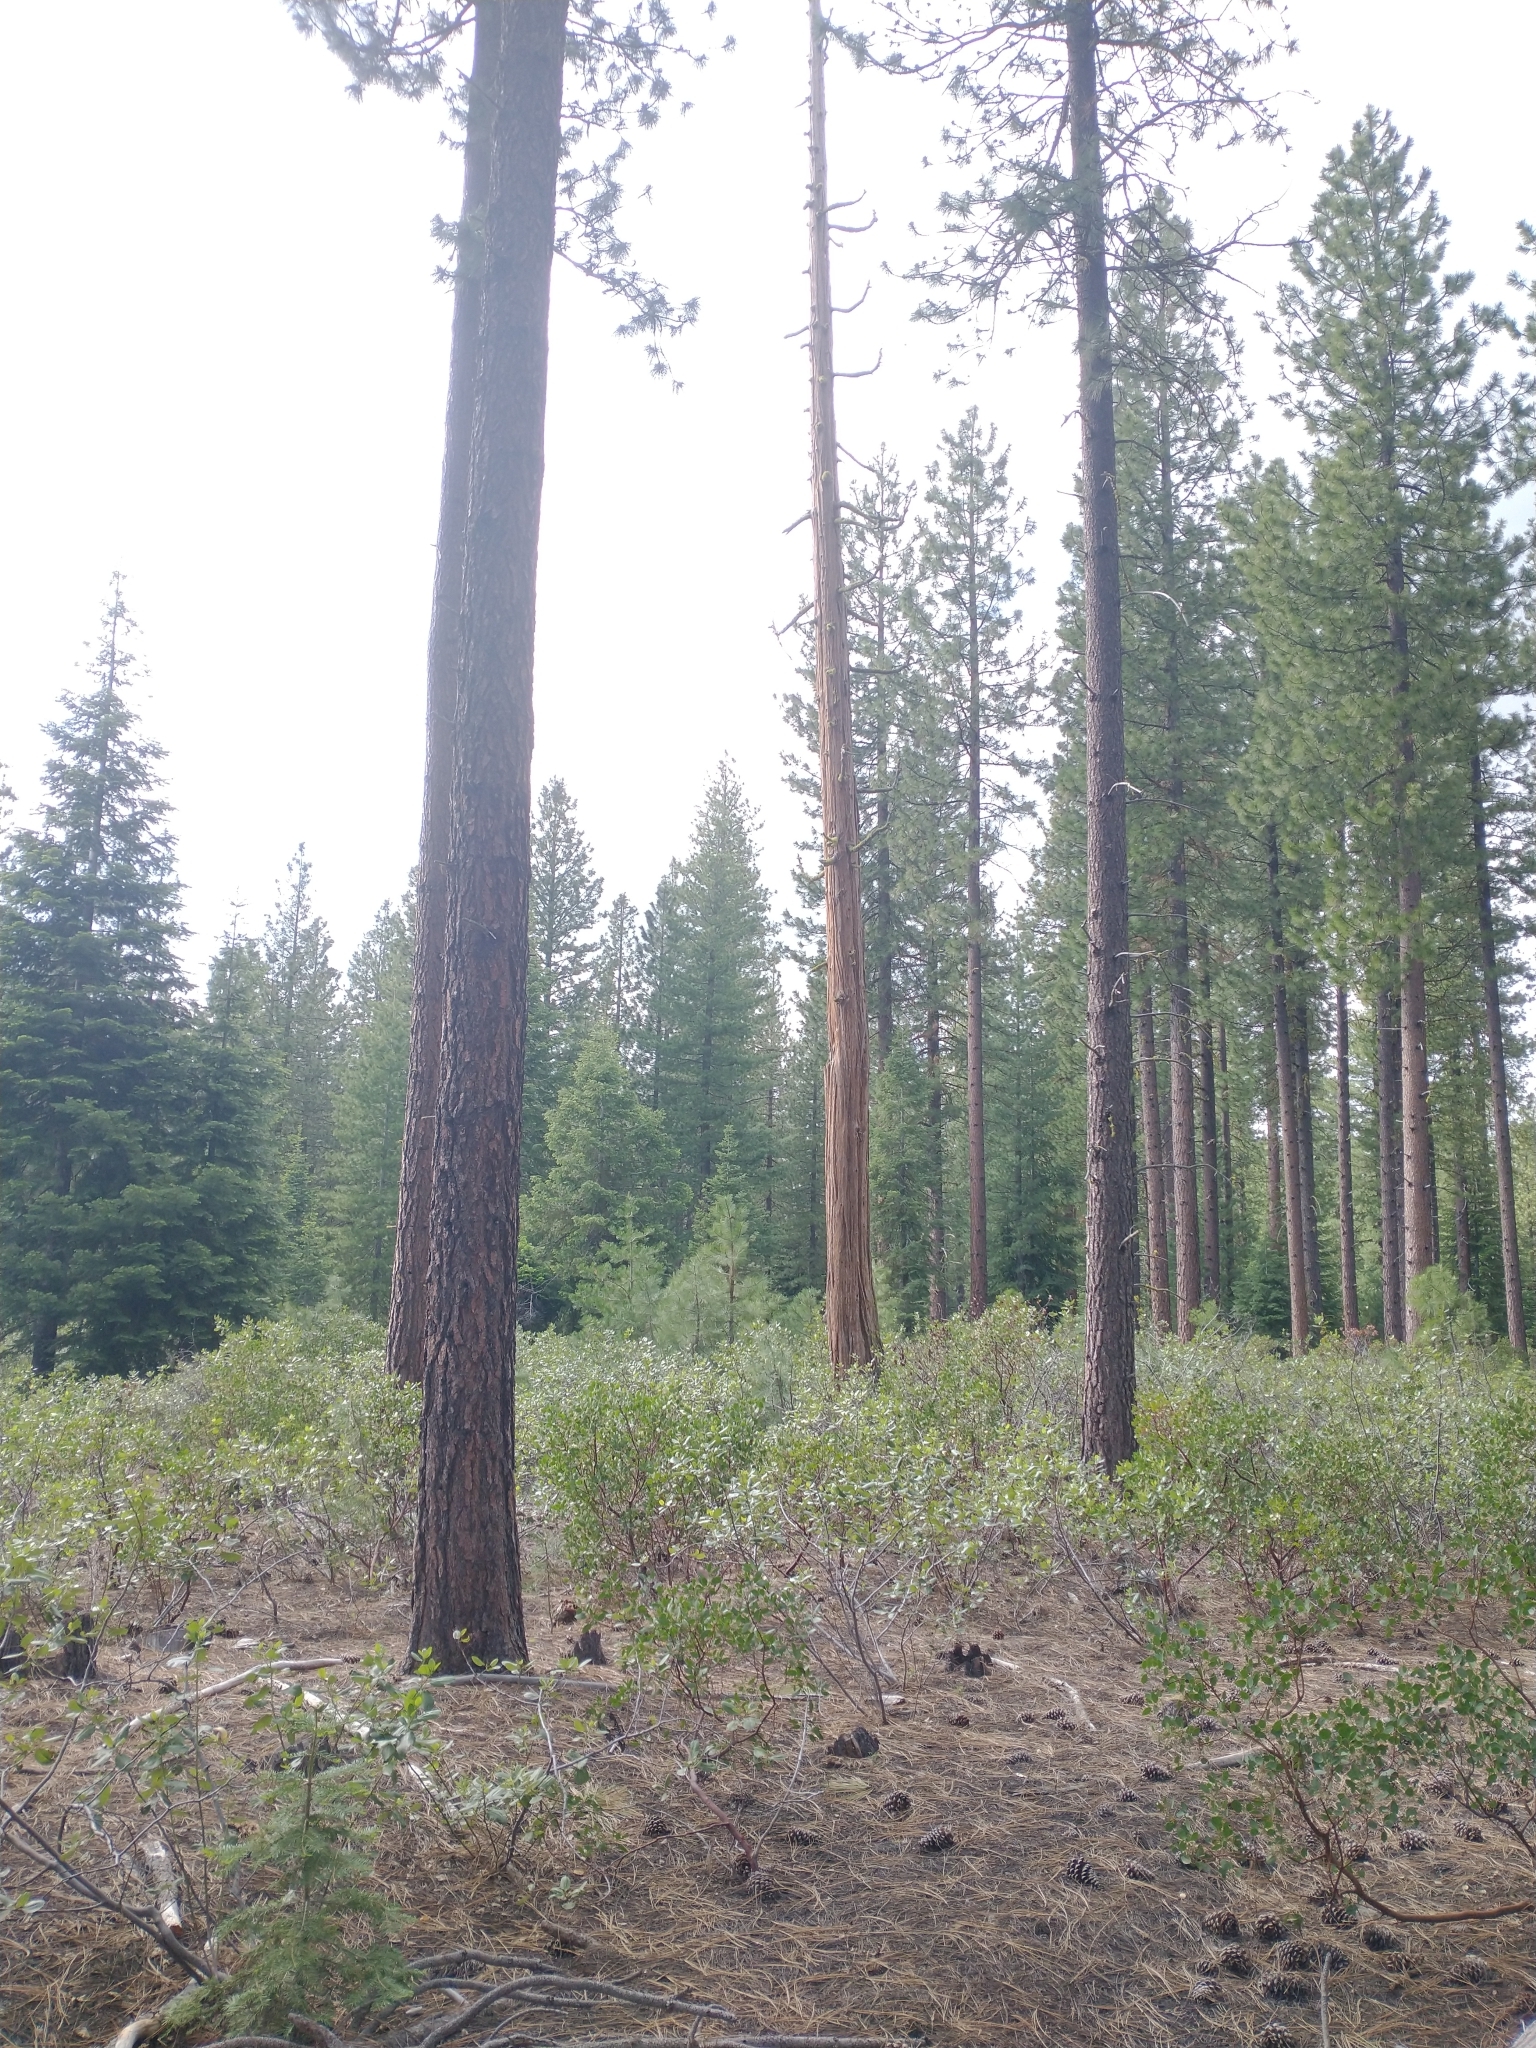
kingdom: Plantae
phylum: Tracheophyta
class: Pinopsida
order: Pinales
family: Cupressaceae
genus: Calocedrus
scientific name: Calocedrus decurrens
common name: Californian incense-cedar
